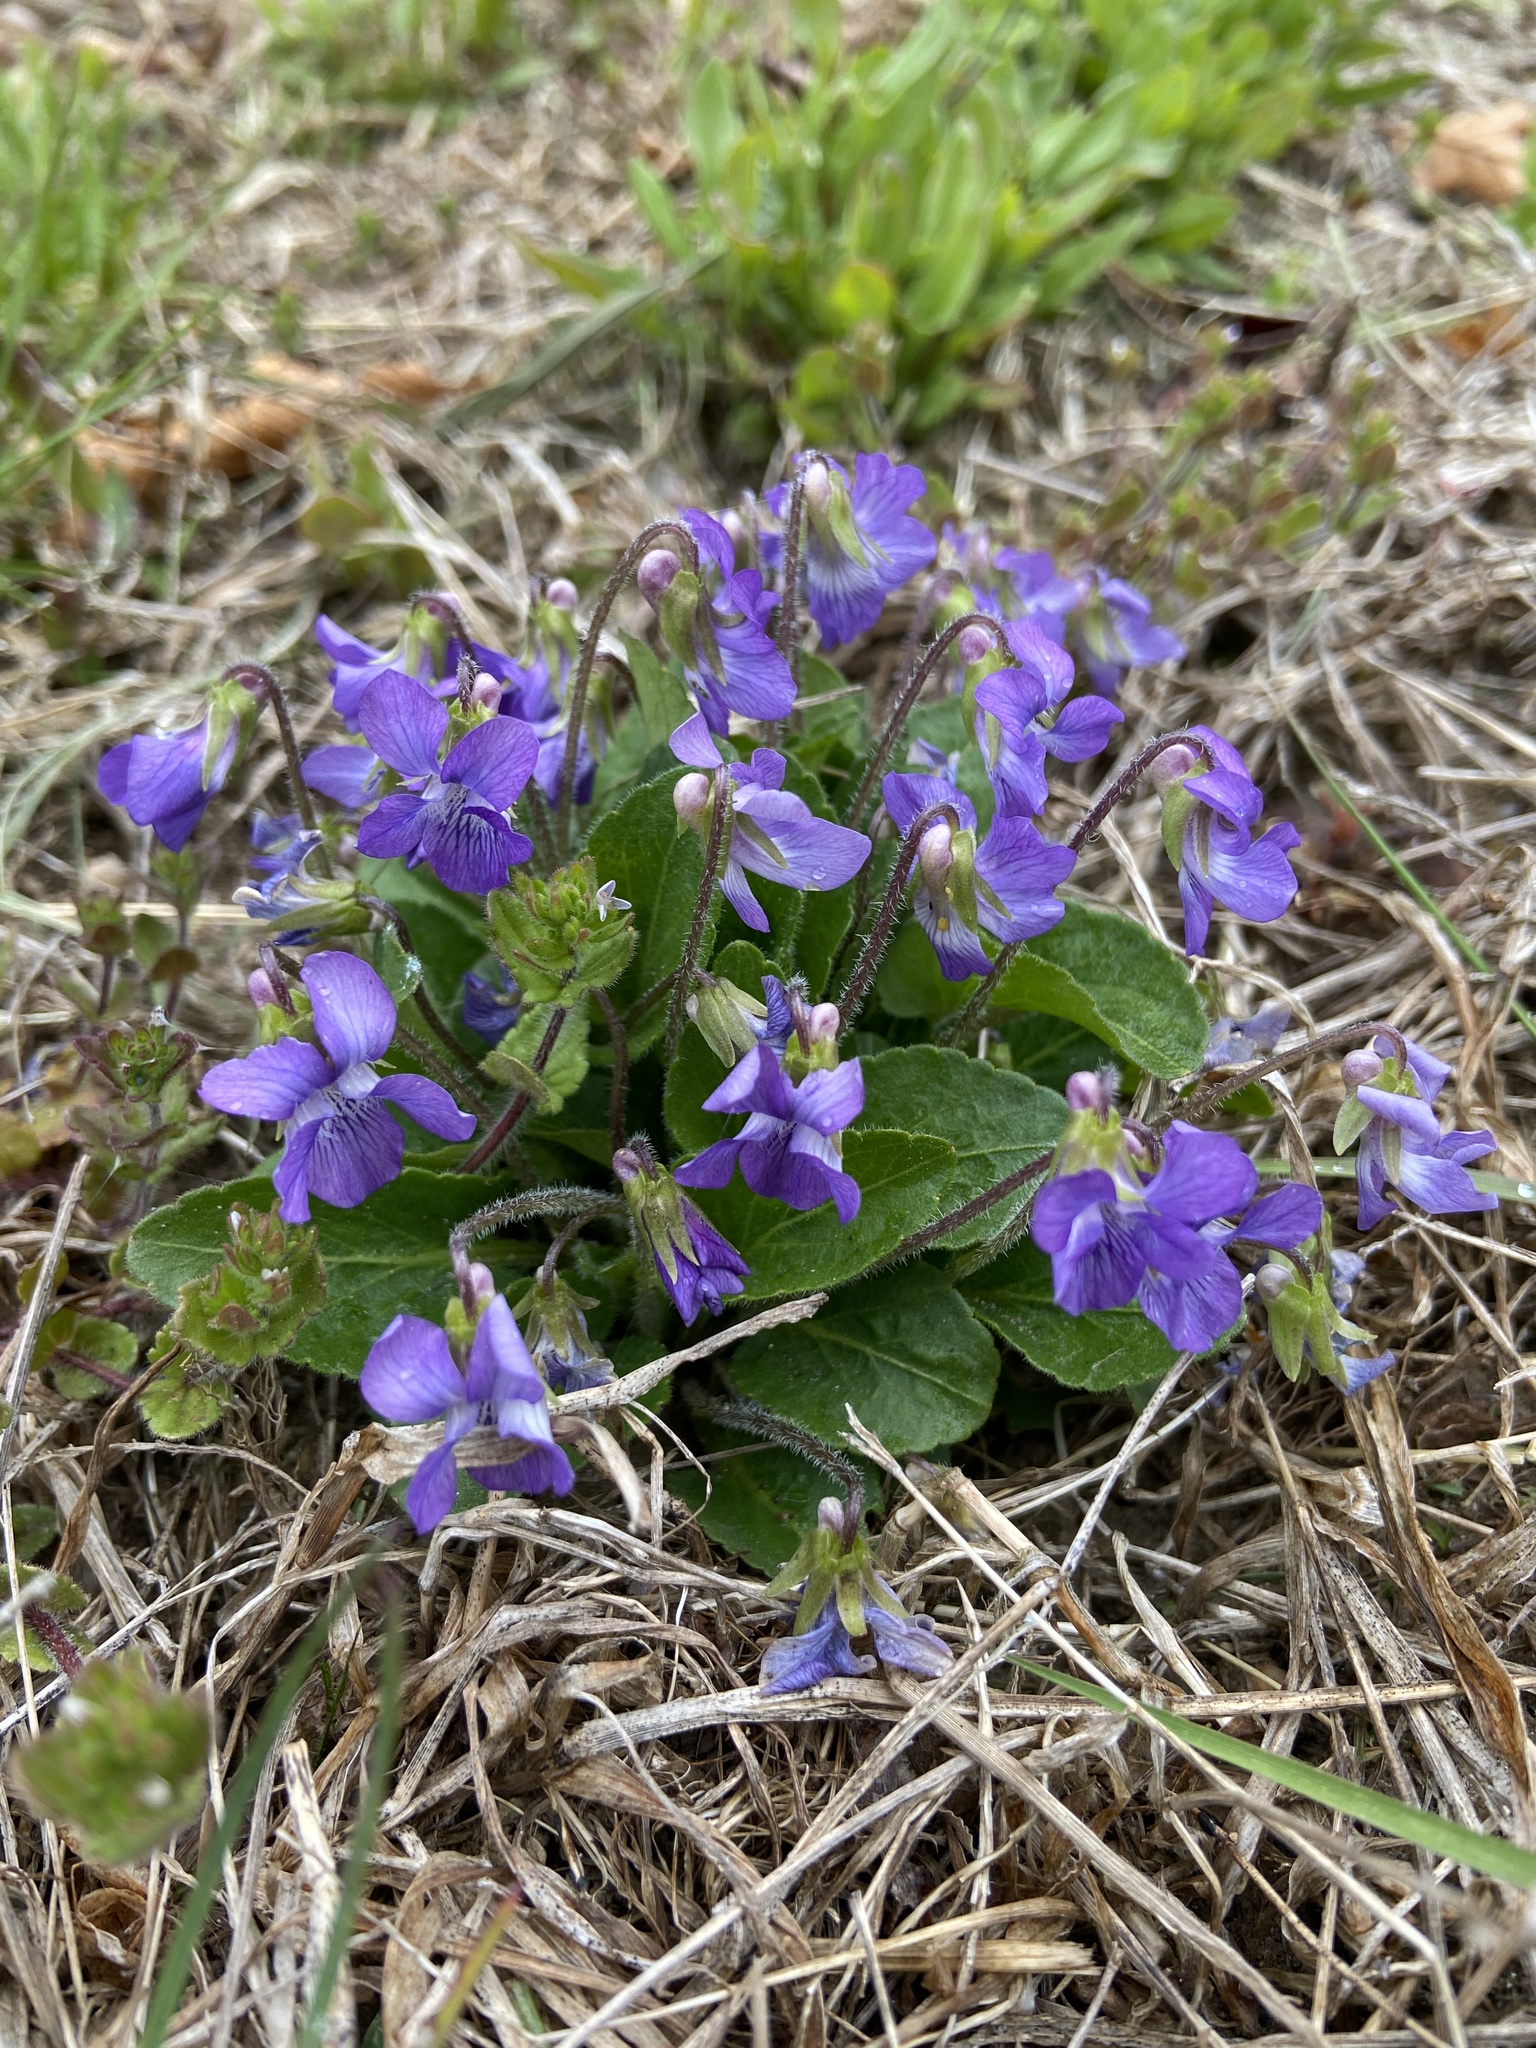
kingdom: Plantae
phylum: Tracheophyta
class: Magnoliopsida
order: Malpighiales
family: Violaceae
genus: Viola
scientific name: Viola fimbriatula
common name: Sand violet
